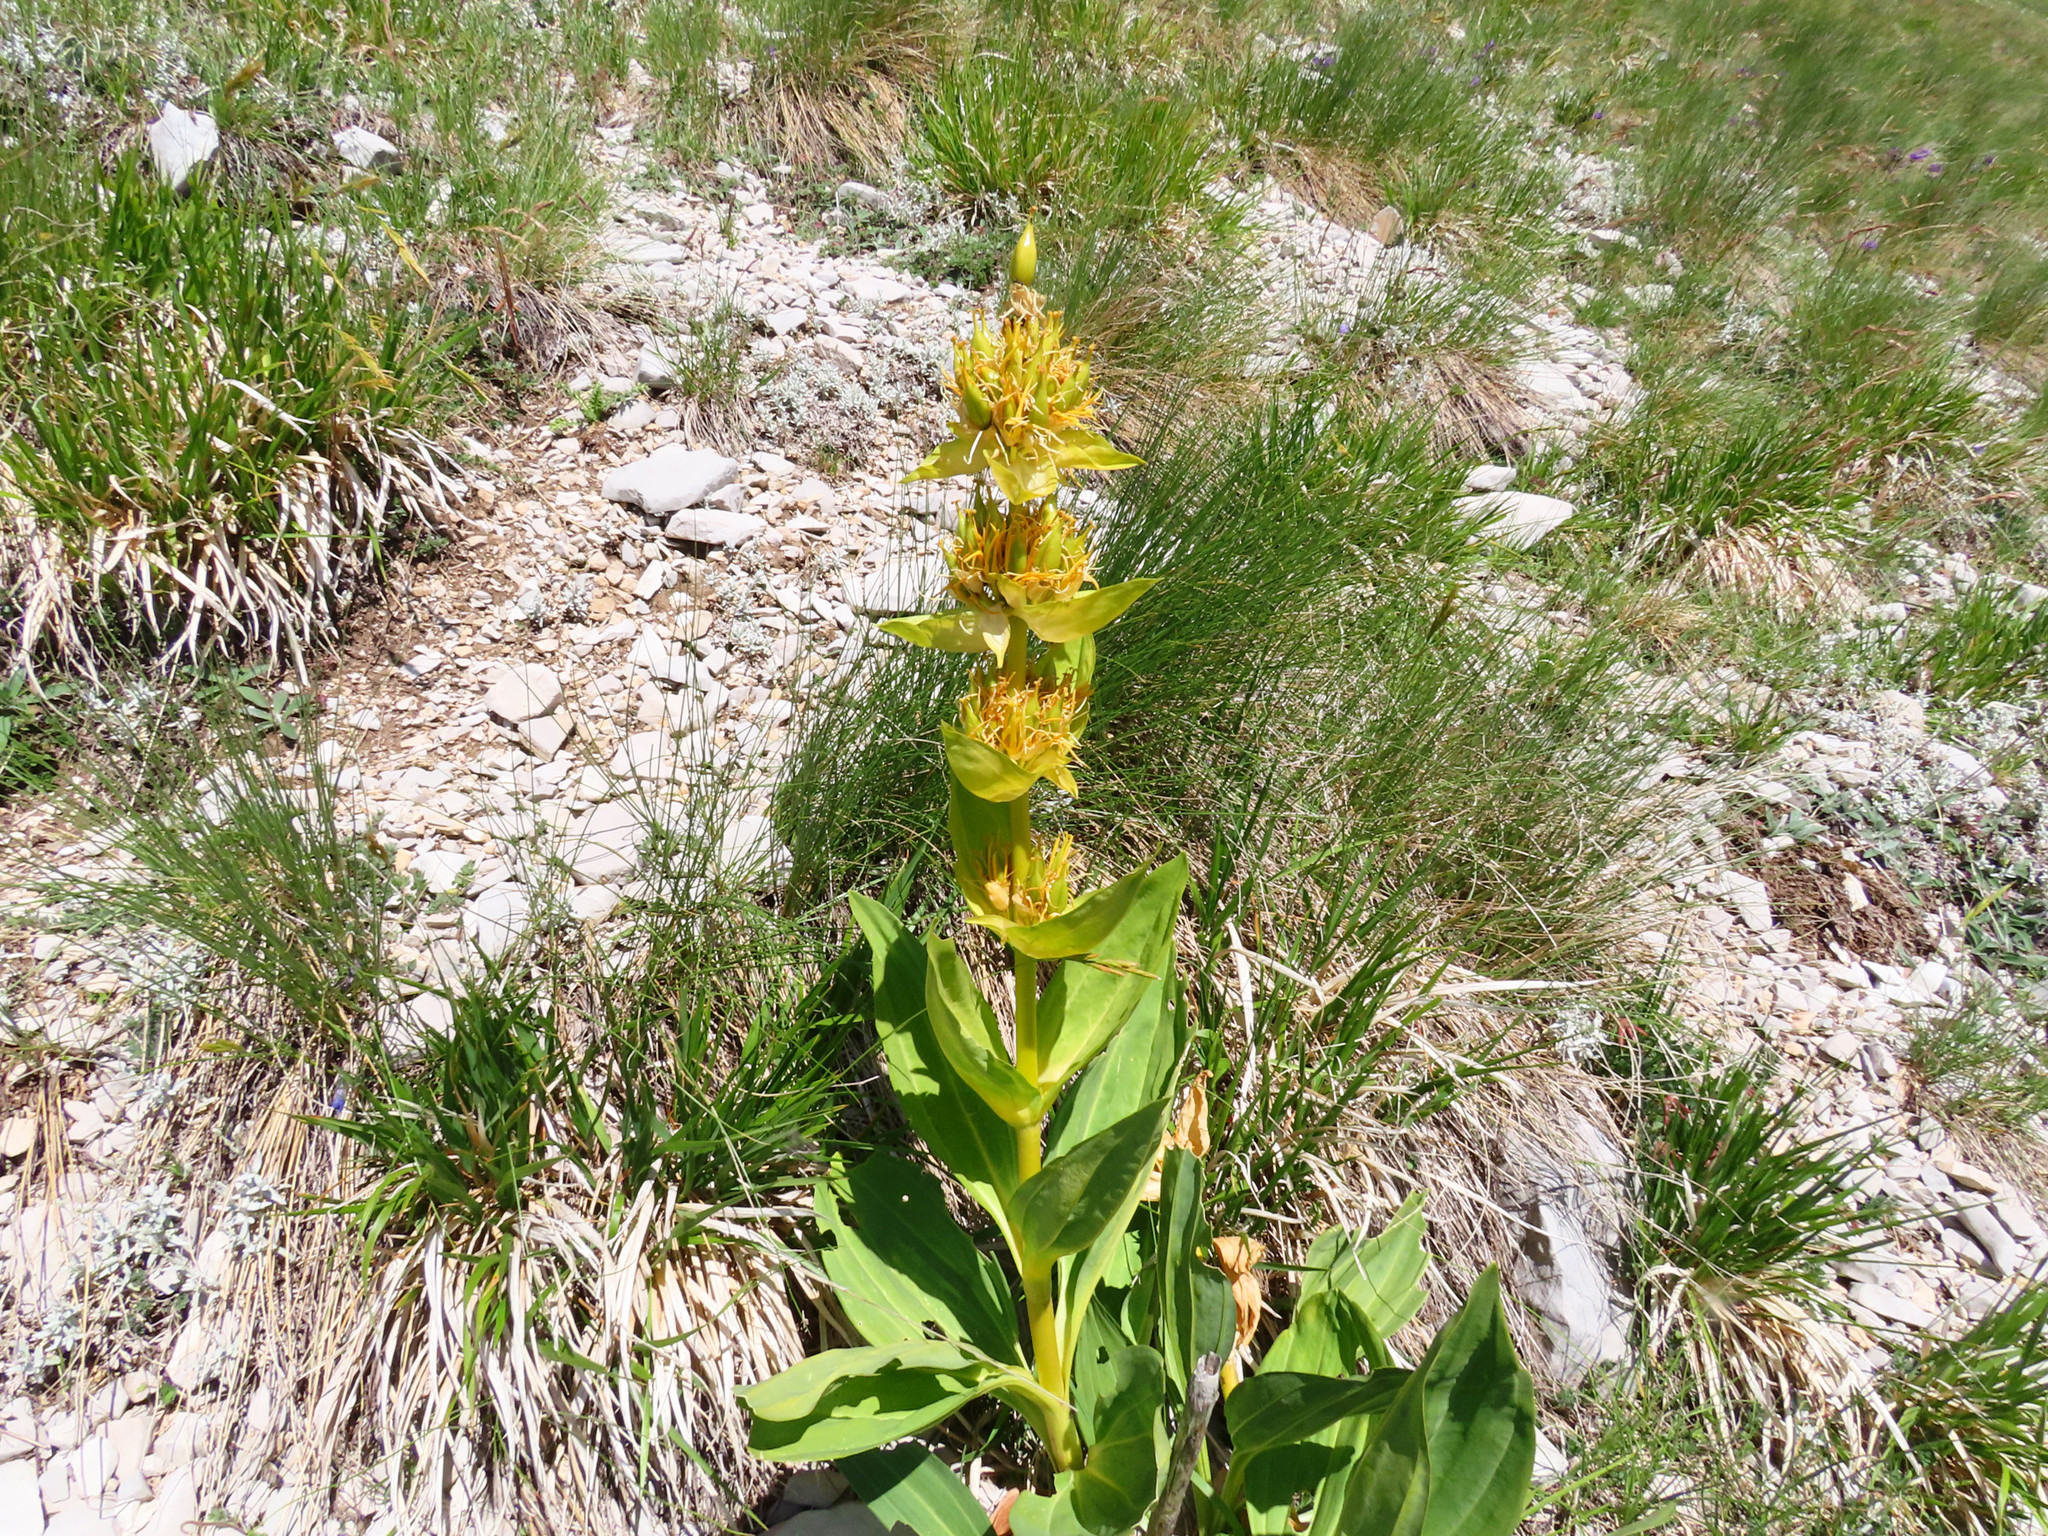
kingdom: Plantae
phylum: Tracheophyta
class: Magnoliopsida
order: Gentianales
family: Gentianaceae
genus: Gentiana
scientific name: Gentiana lutea
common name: Great yellow gentian
